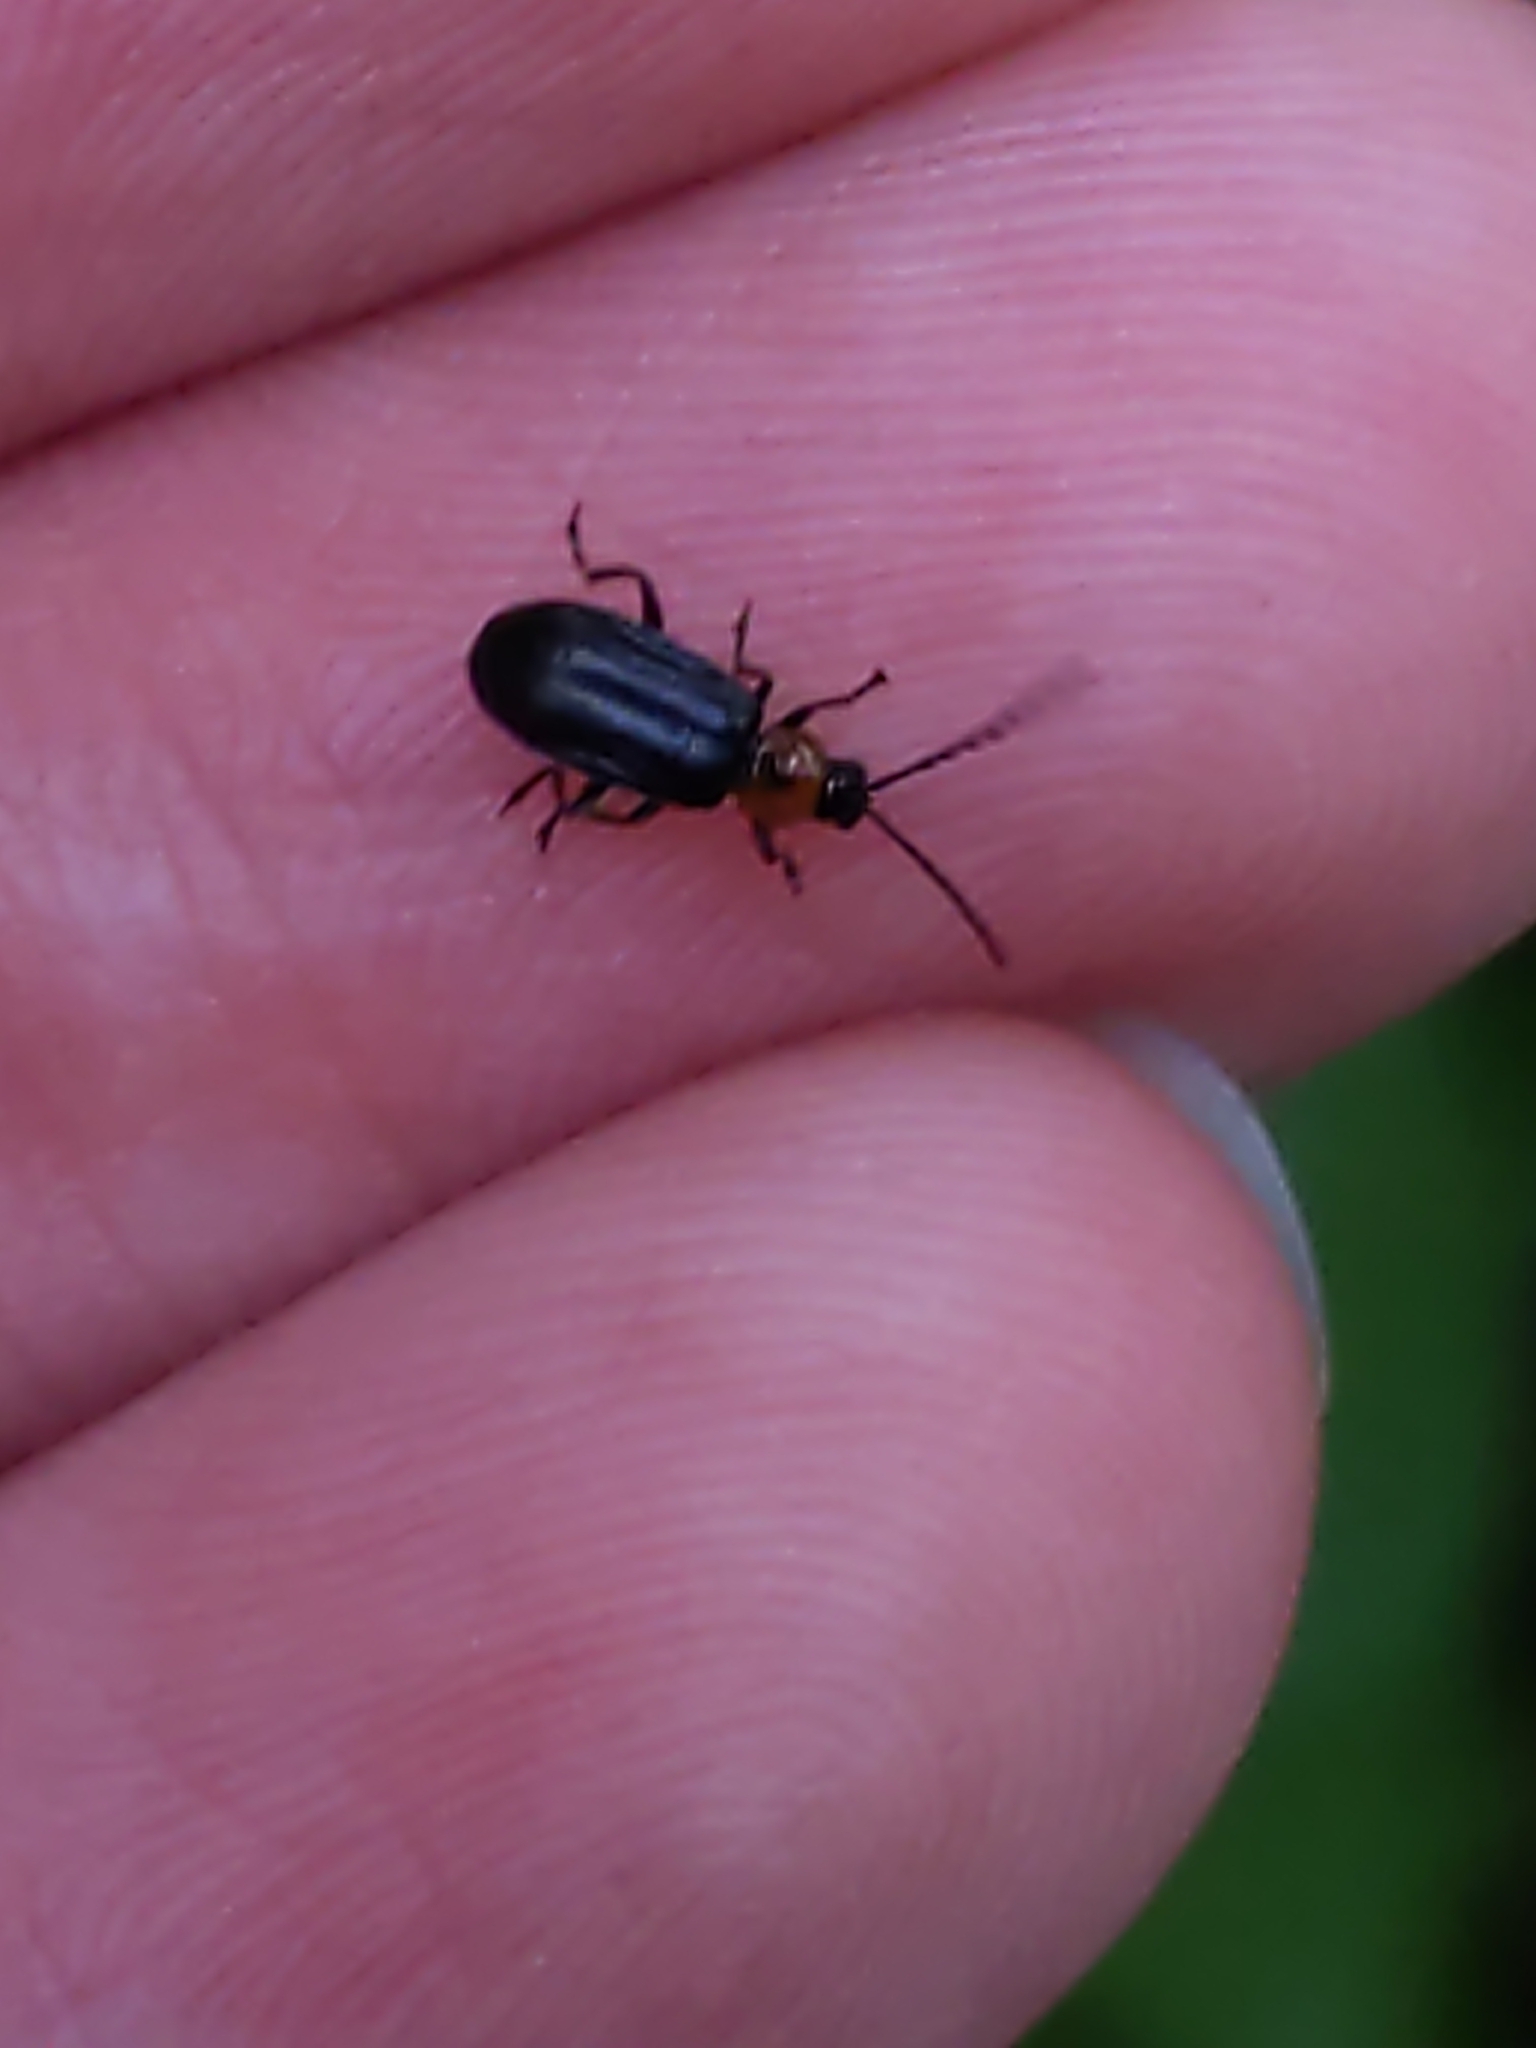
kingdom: Animalia
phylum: Arthropoda
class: Insecta
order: Coleoptera
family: Chrysomelidae
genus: Diabrotica
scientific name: Diabrotica cristata
